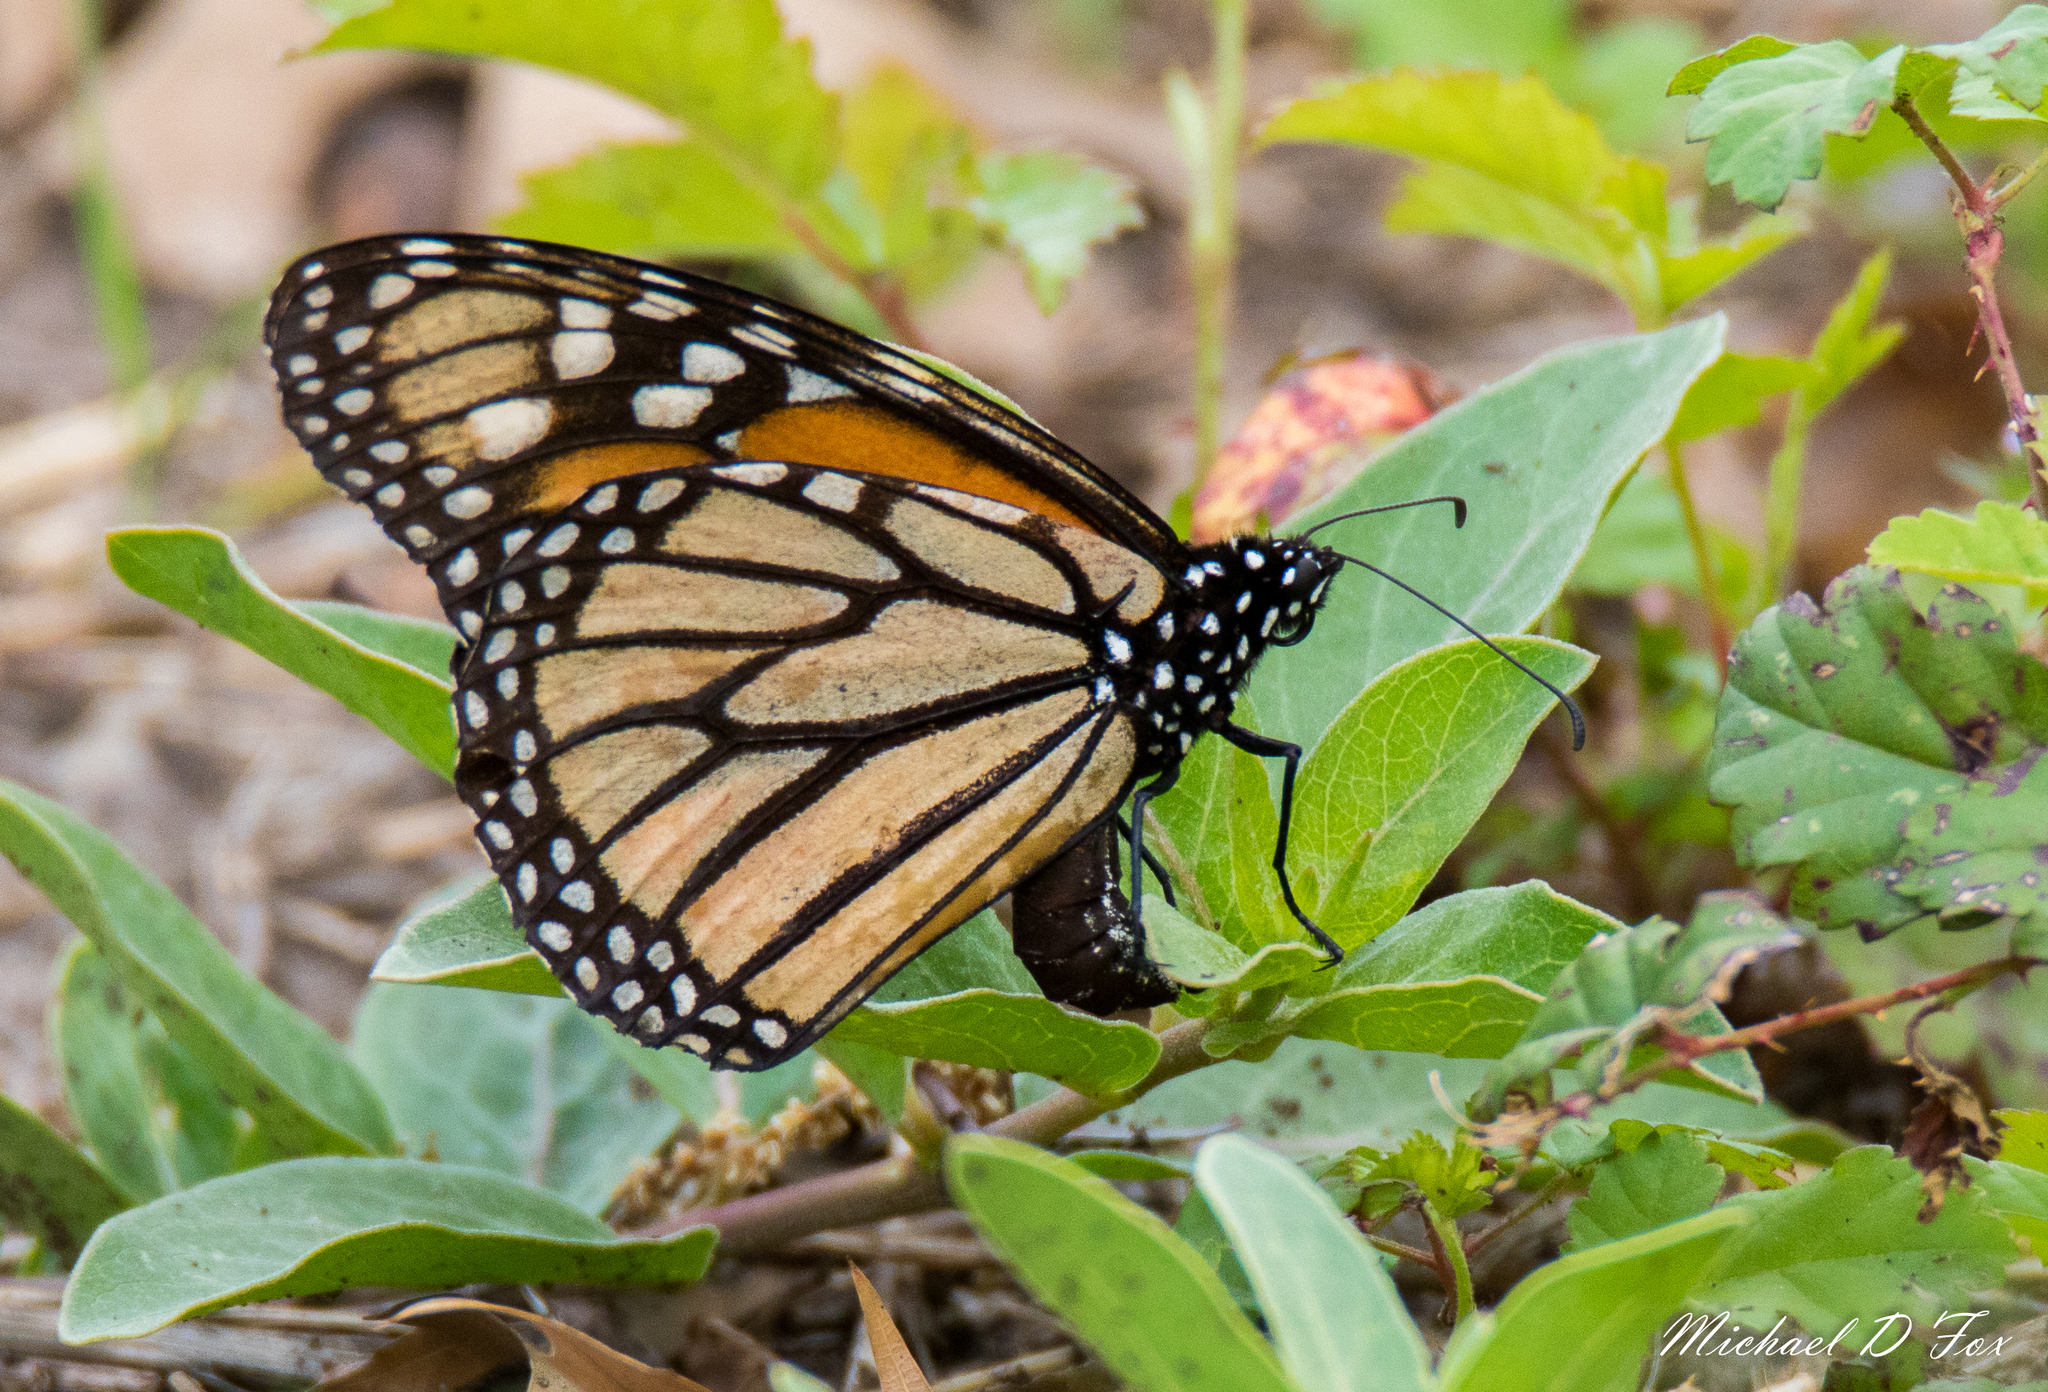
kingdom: Animalia
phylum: Arthropoda
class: Insecta
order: Lepidoptera
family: Nymphalidae
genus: Danaus
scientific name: Danaus plexippus
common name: Monarch
